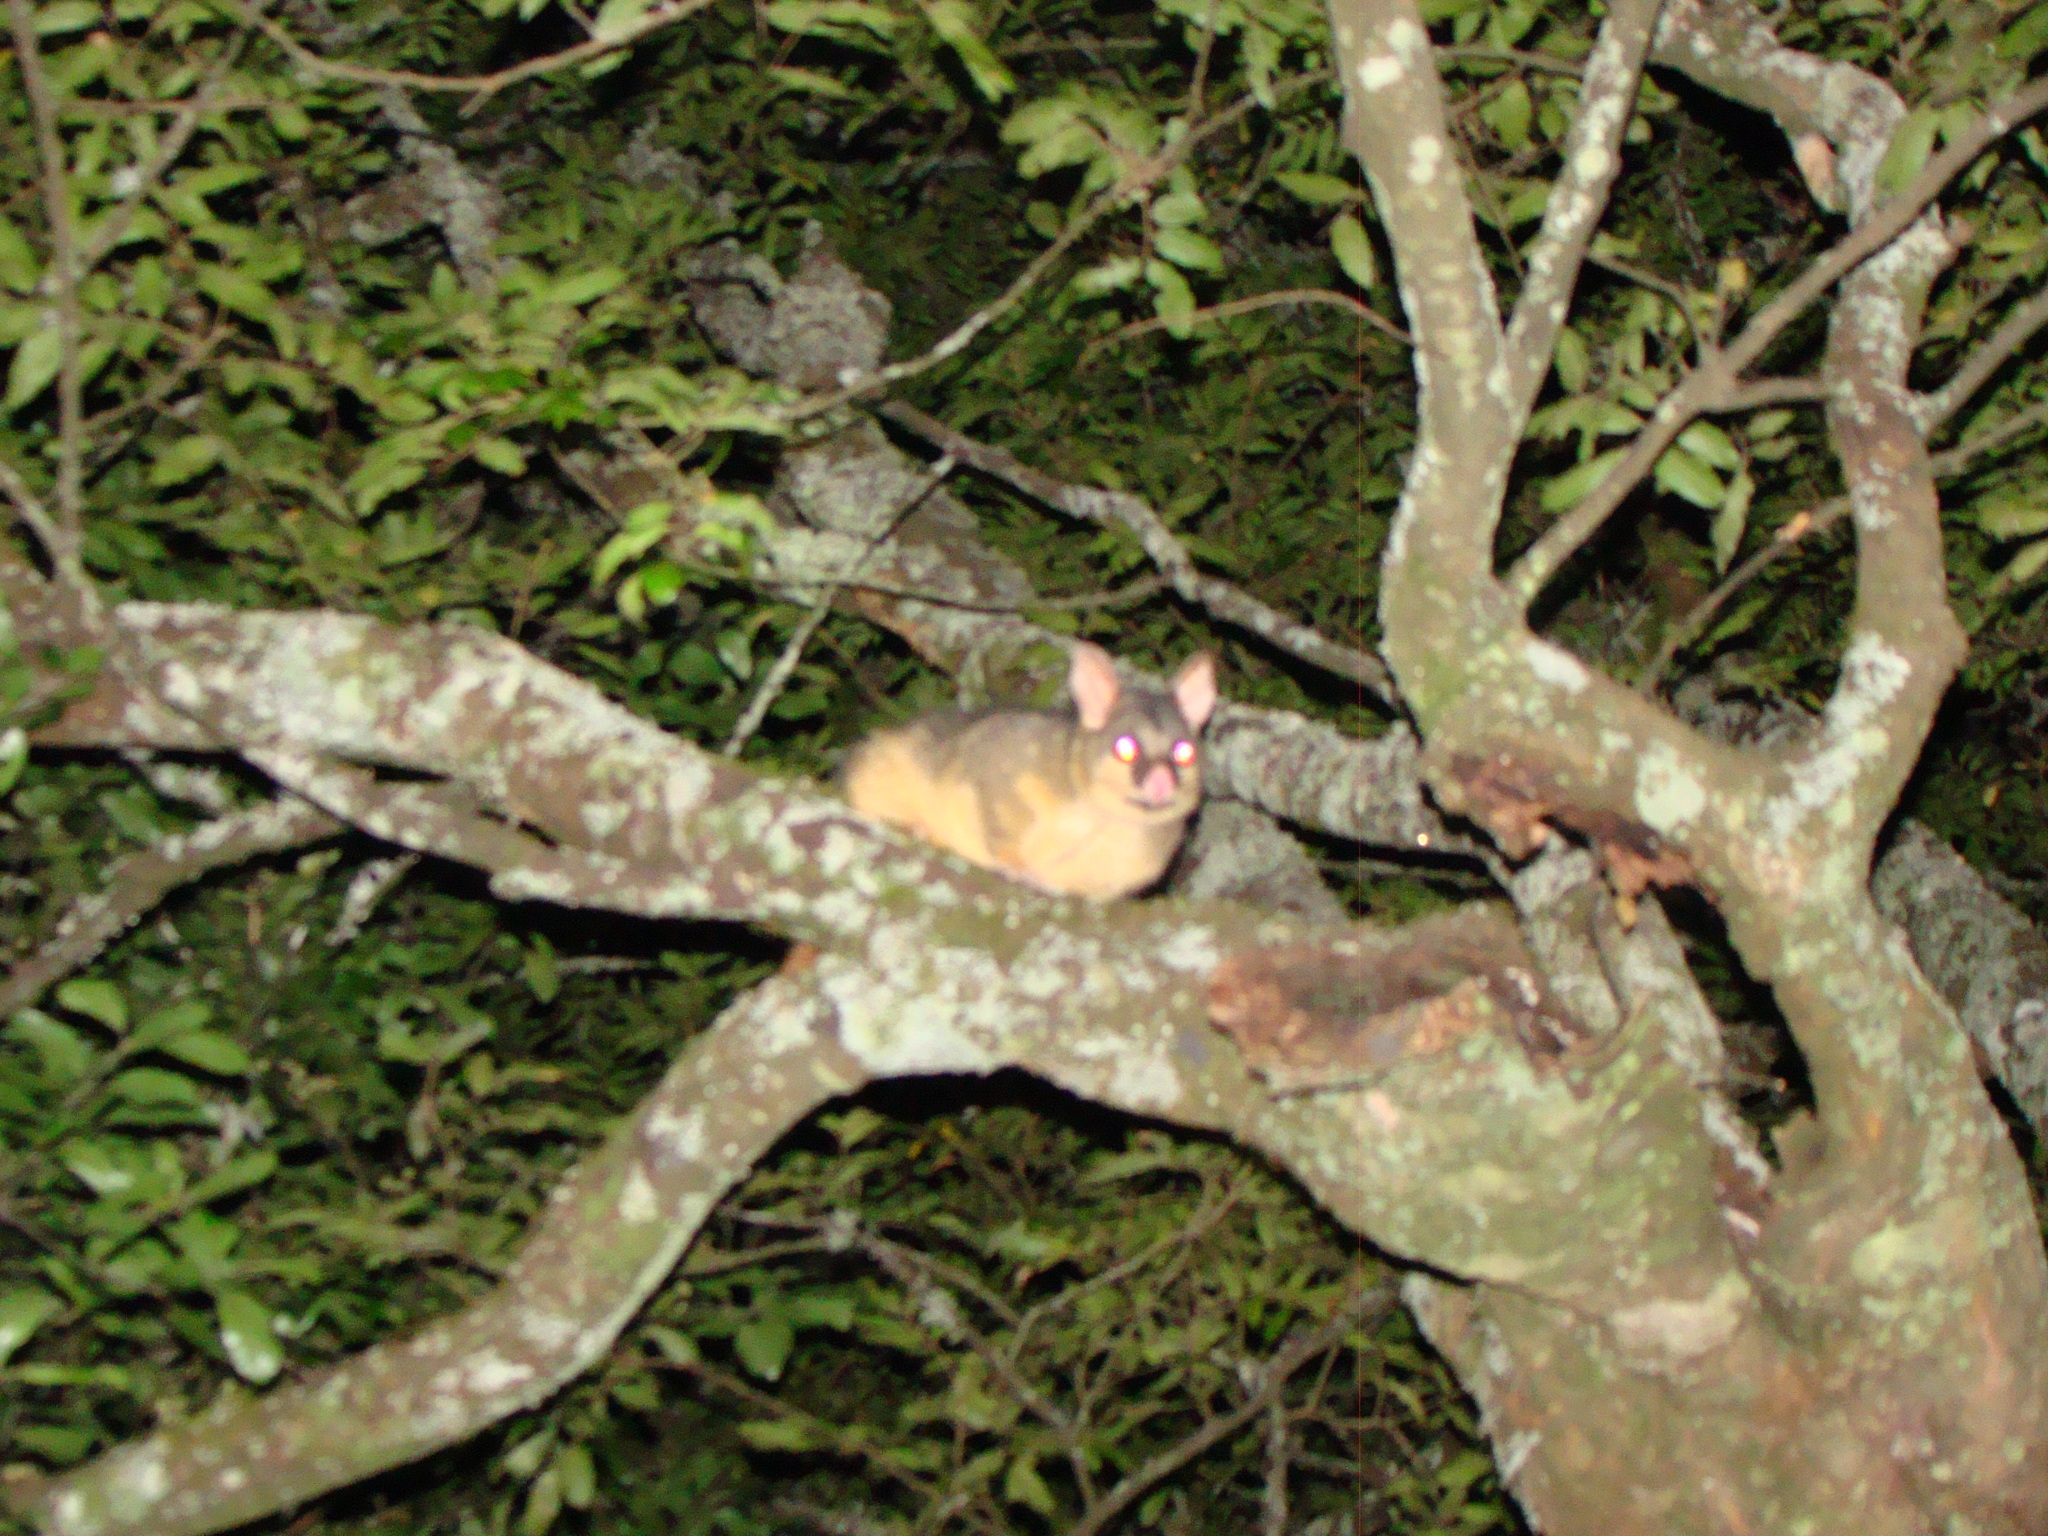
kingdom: Animalia
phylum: Chordata
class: Mammalia
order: Diprotodontia
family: Phalangeridae
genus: Trichosurus
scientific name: Trichosurus vulpecula
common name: Common brushtail
